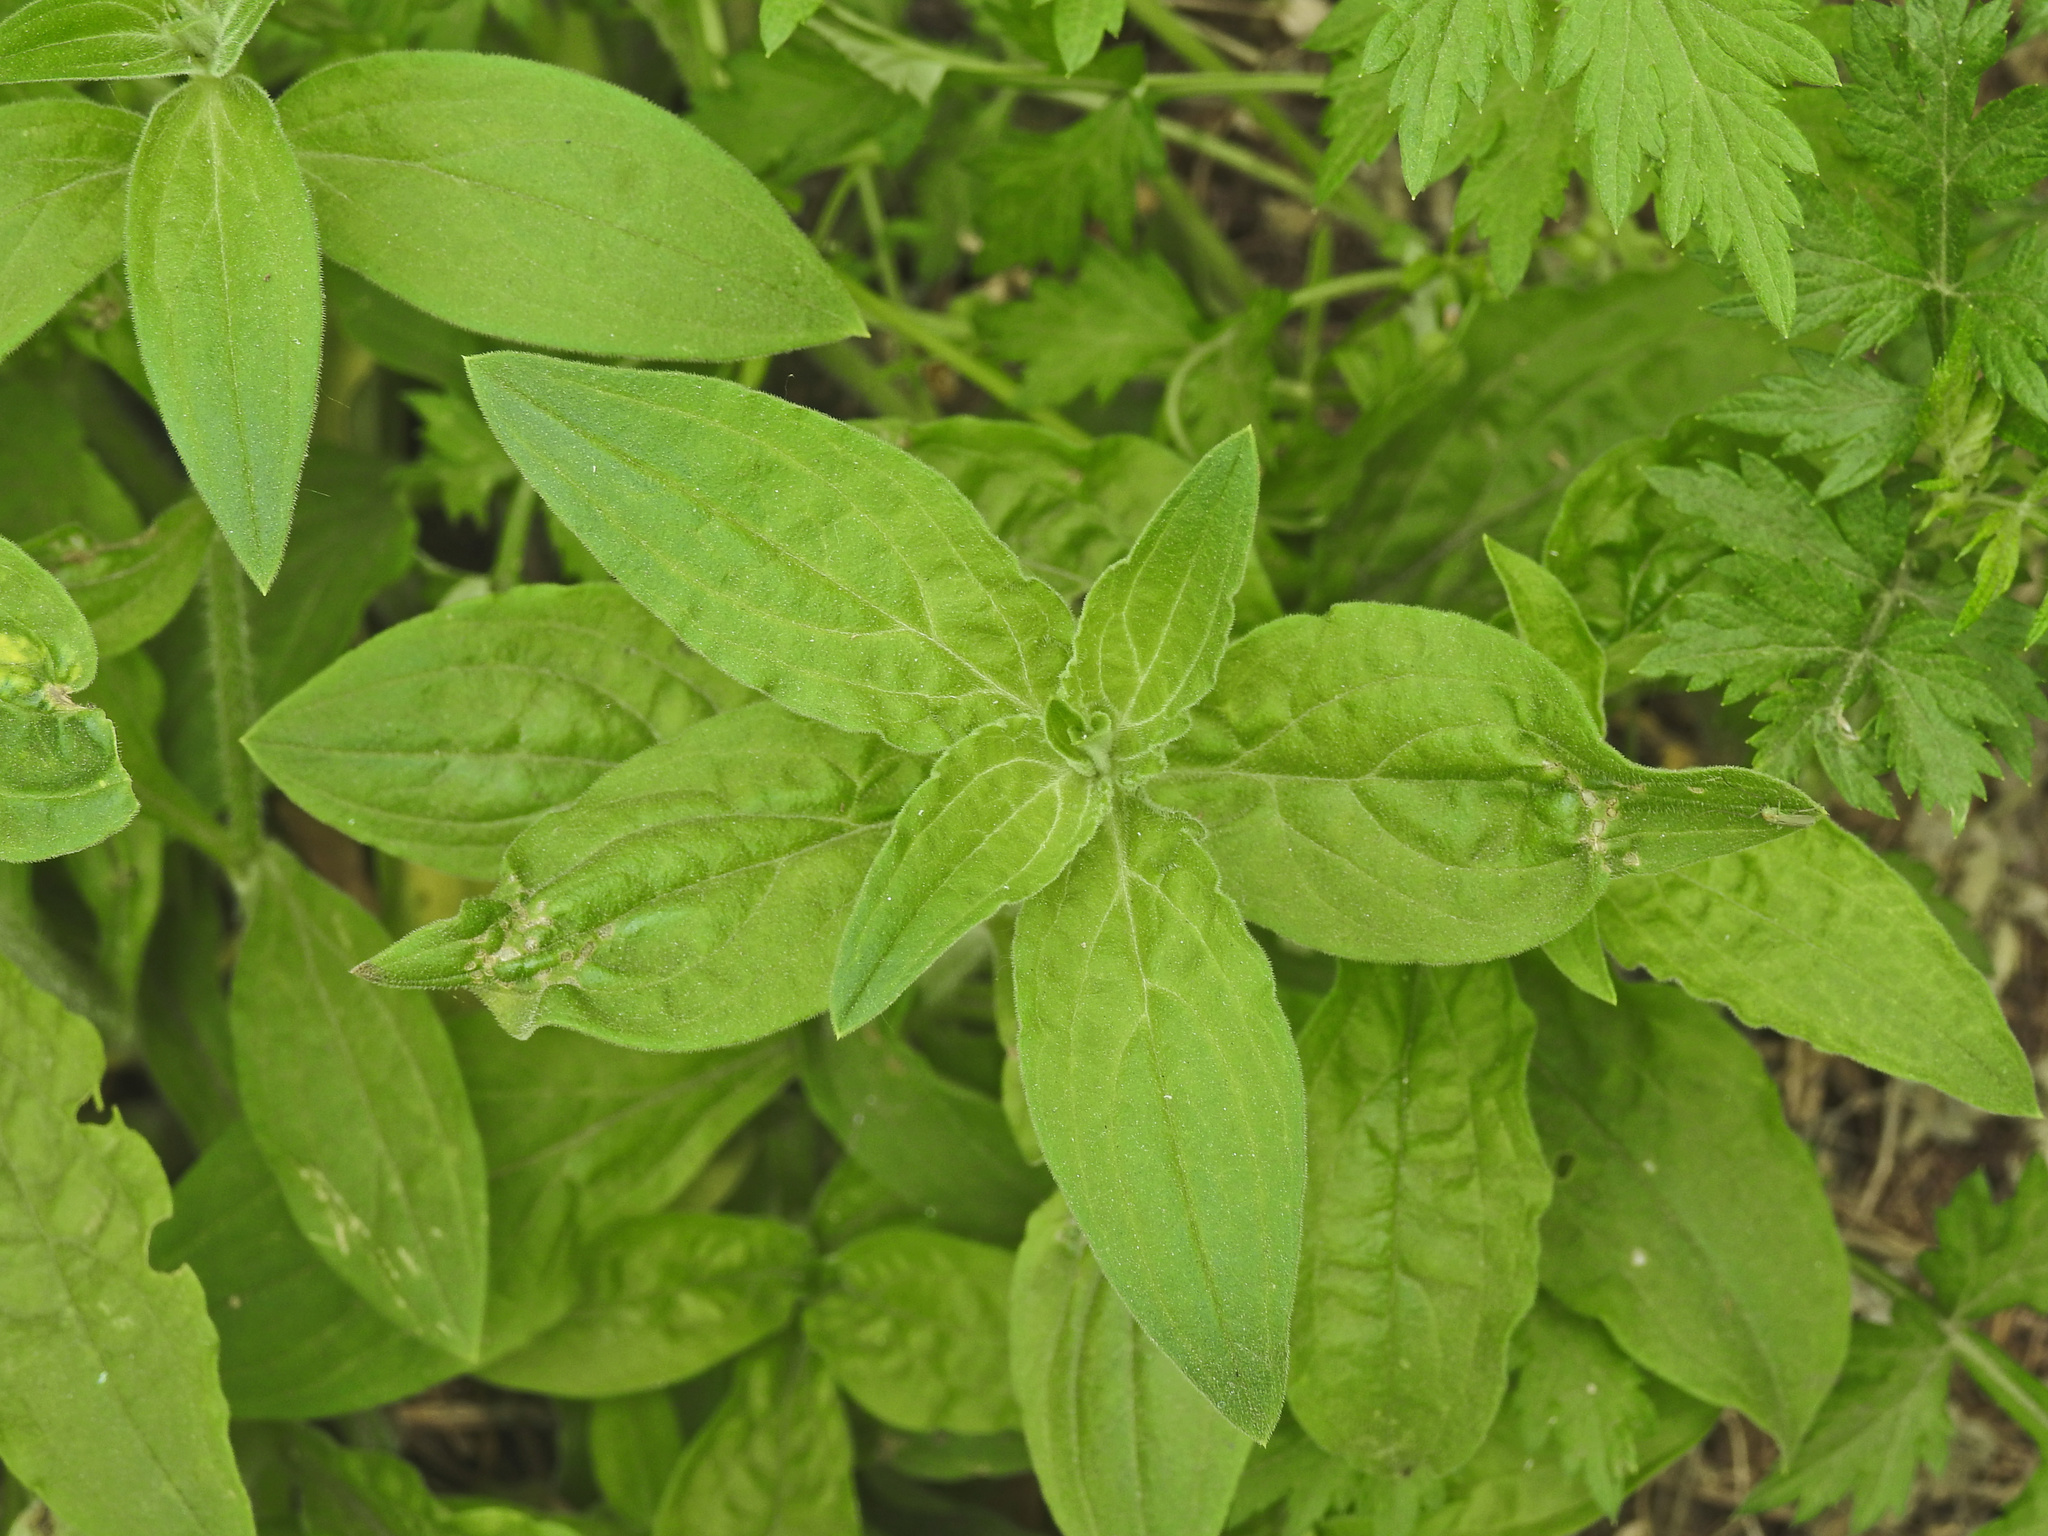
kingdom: Plantae
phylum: Tracheophyta
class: Magnoliopsida
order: Caryophyllales
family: Caryophyllaceae
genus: Silene
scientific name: Silene latifolia
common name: White campion
